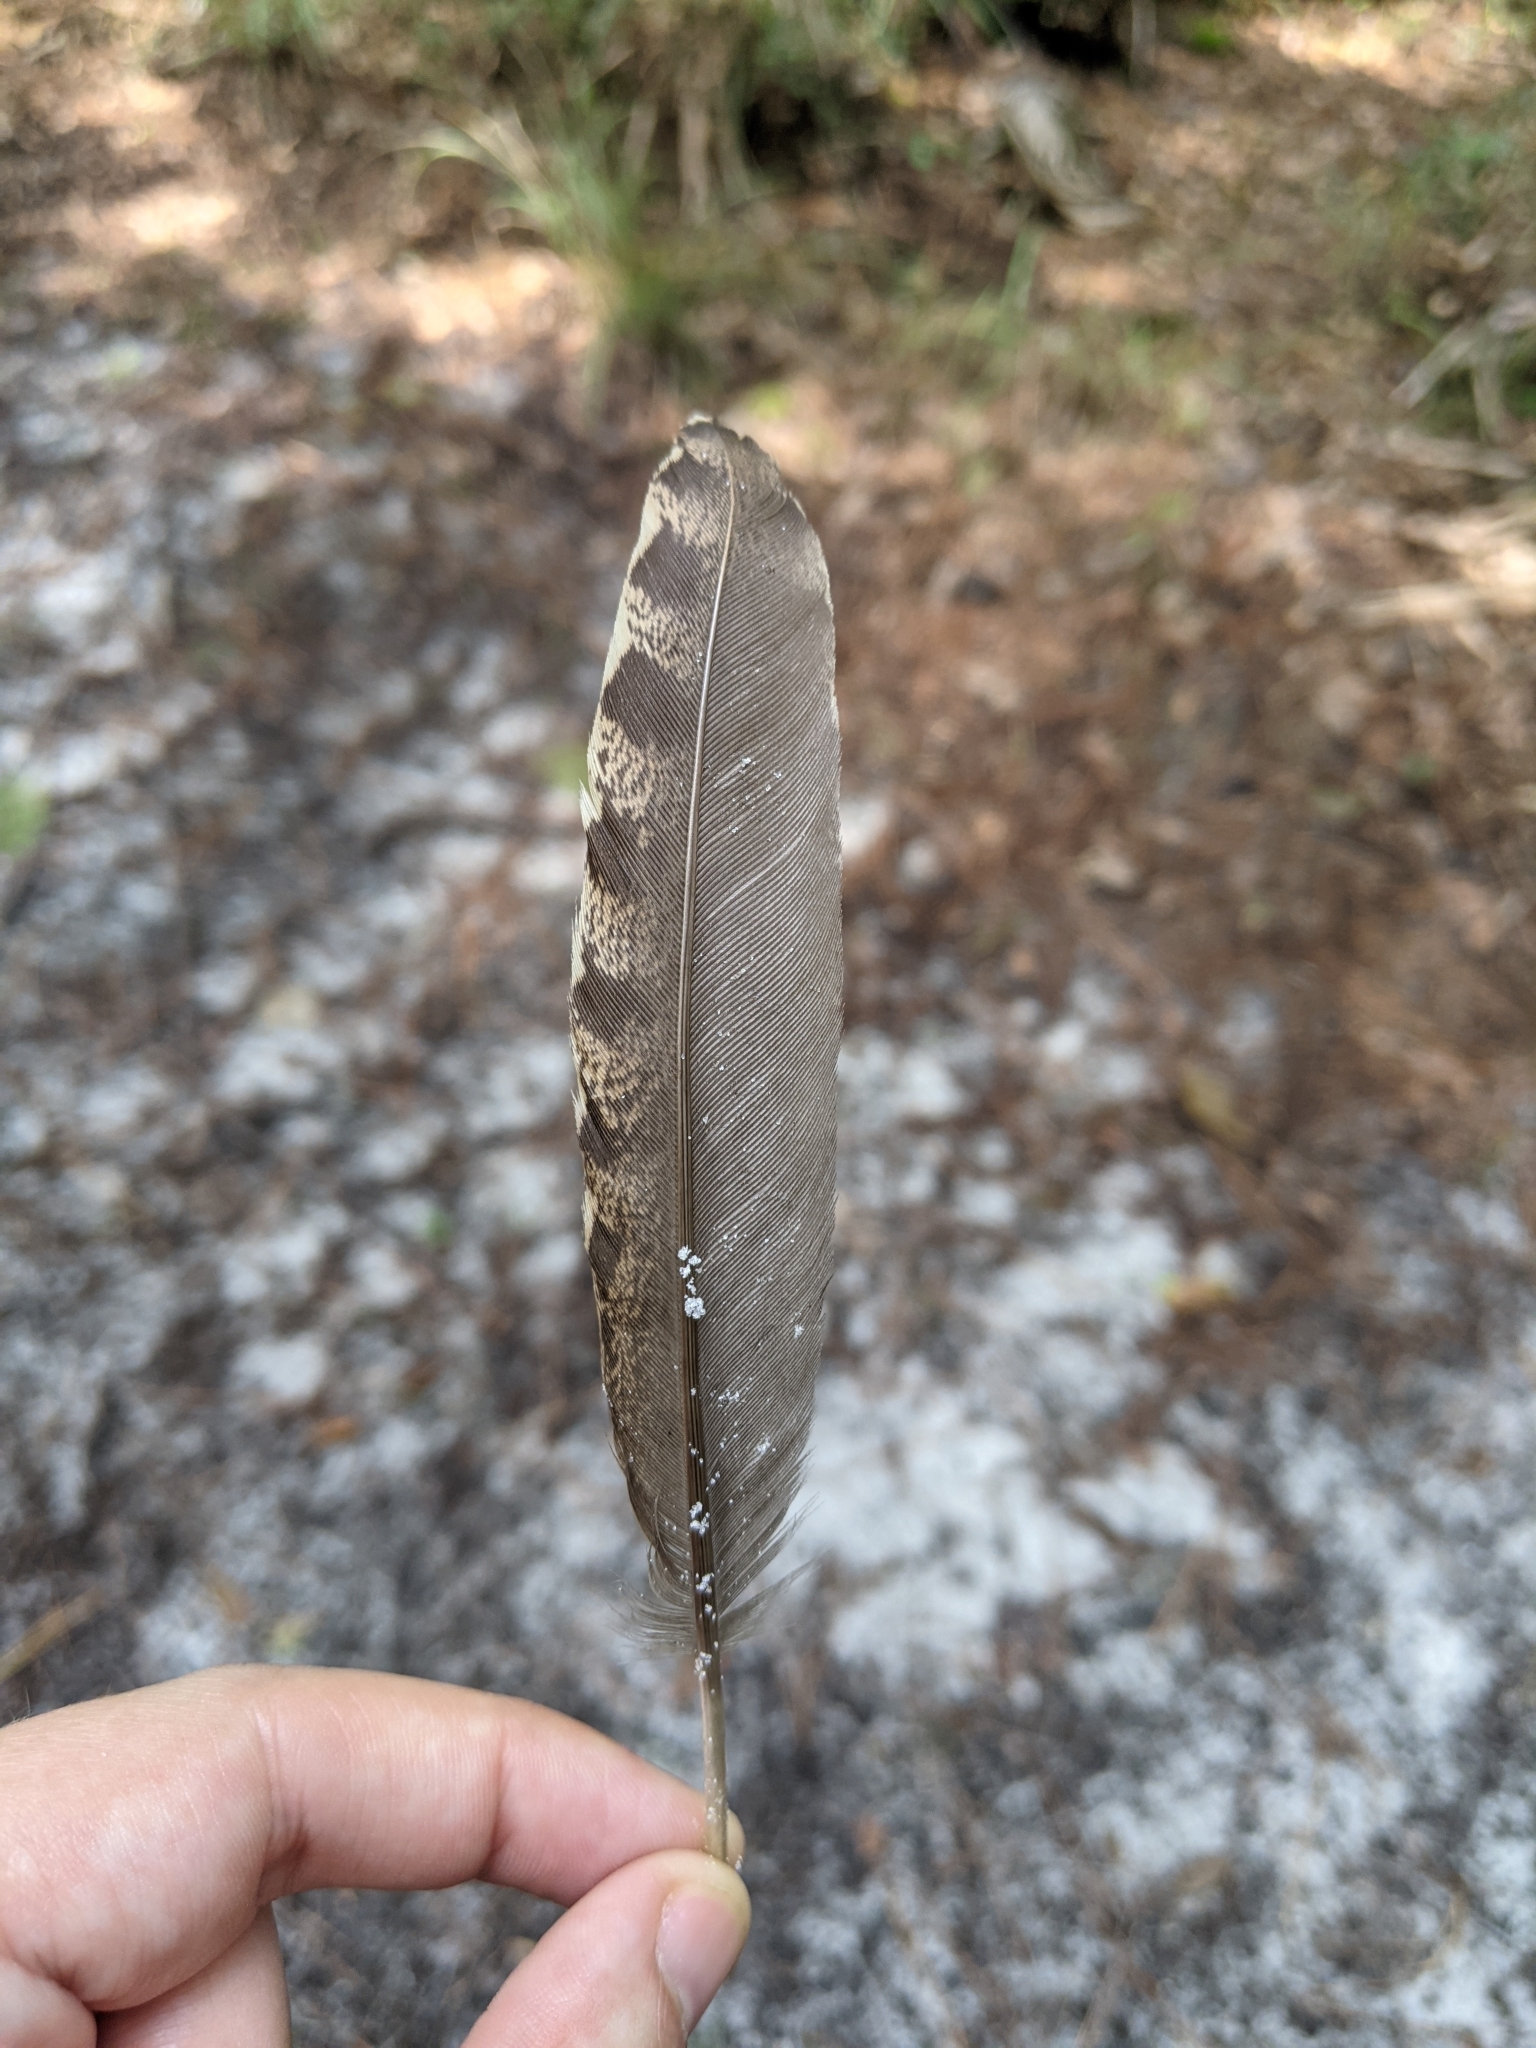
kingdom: Animalia
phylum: Chordata
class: Aves
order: Galliformes
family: Phasianidae
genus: Meleagris
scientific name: Meleagris gallopavo
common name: Wild turkey
